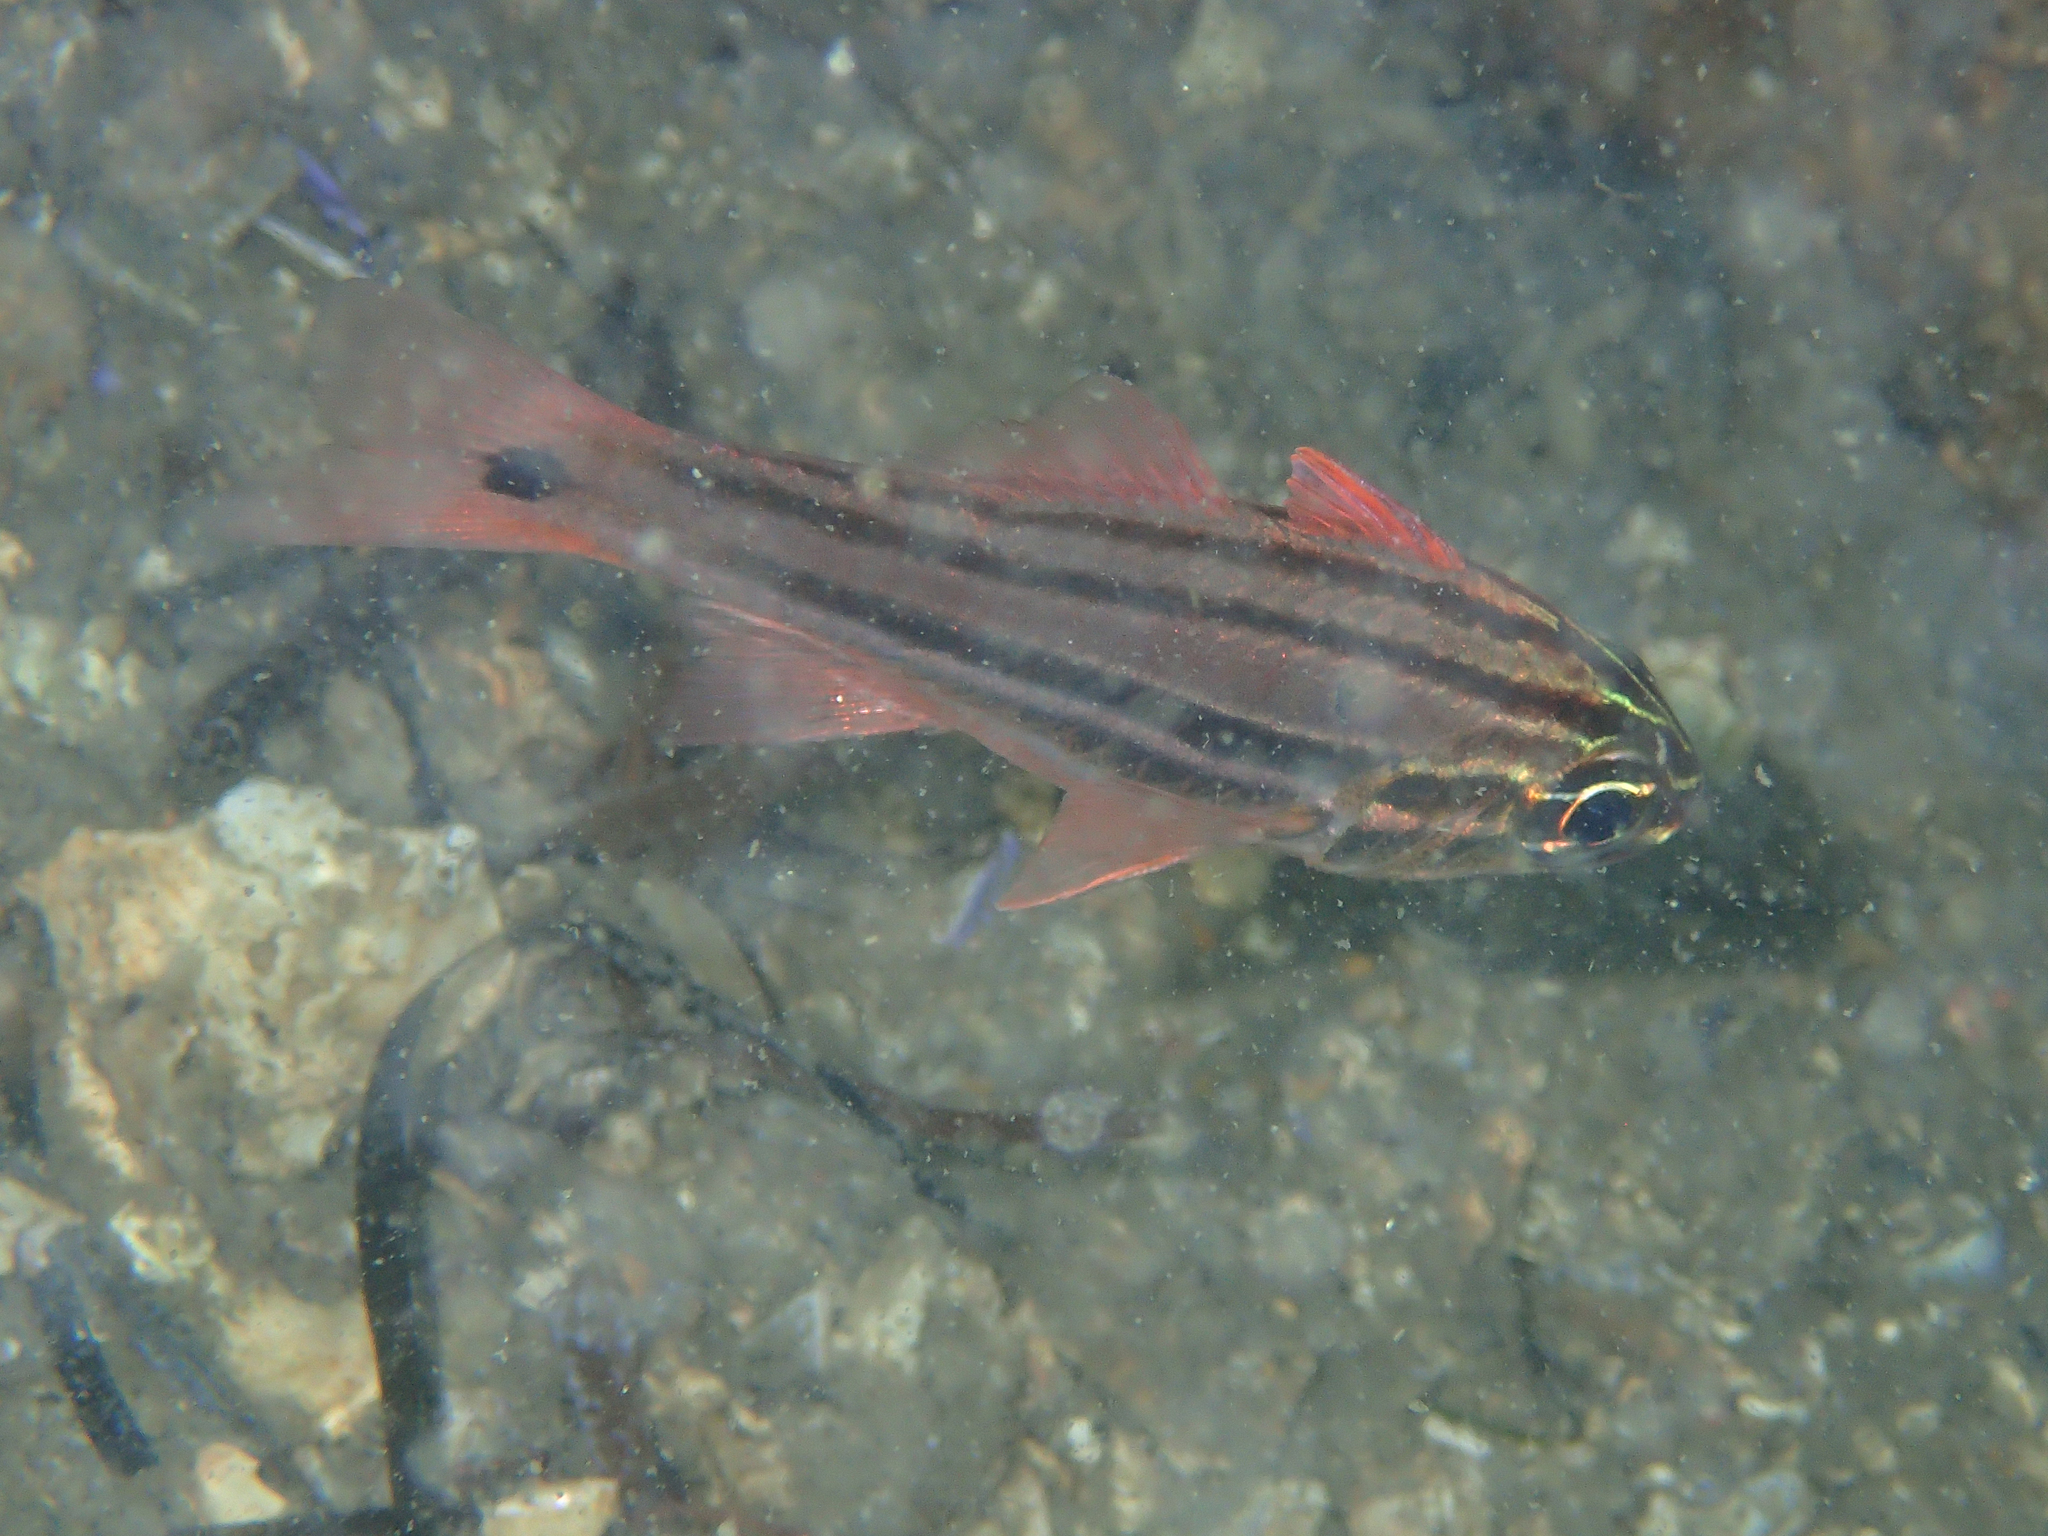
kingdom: Animalia
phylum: Chordata
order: Perciformes
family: Apogonidae
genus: Ostorhinchus
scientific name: Ostorhinchus limenus
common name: Four-banded soldierfish
